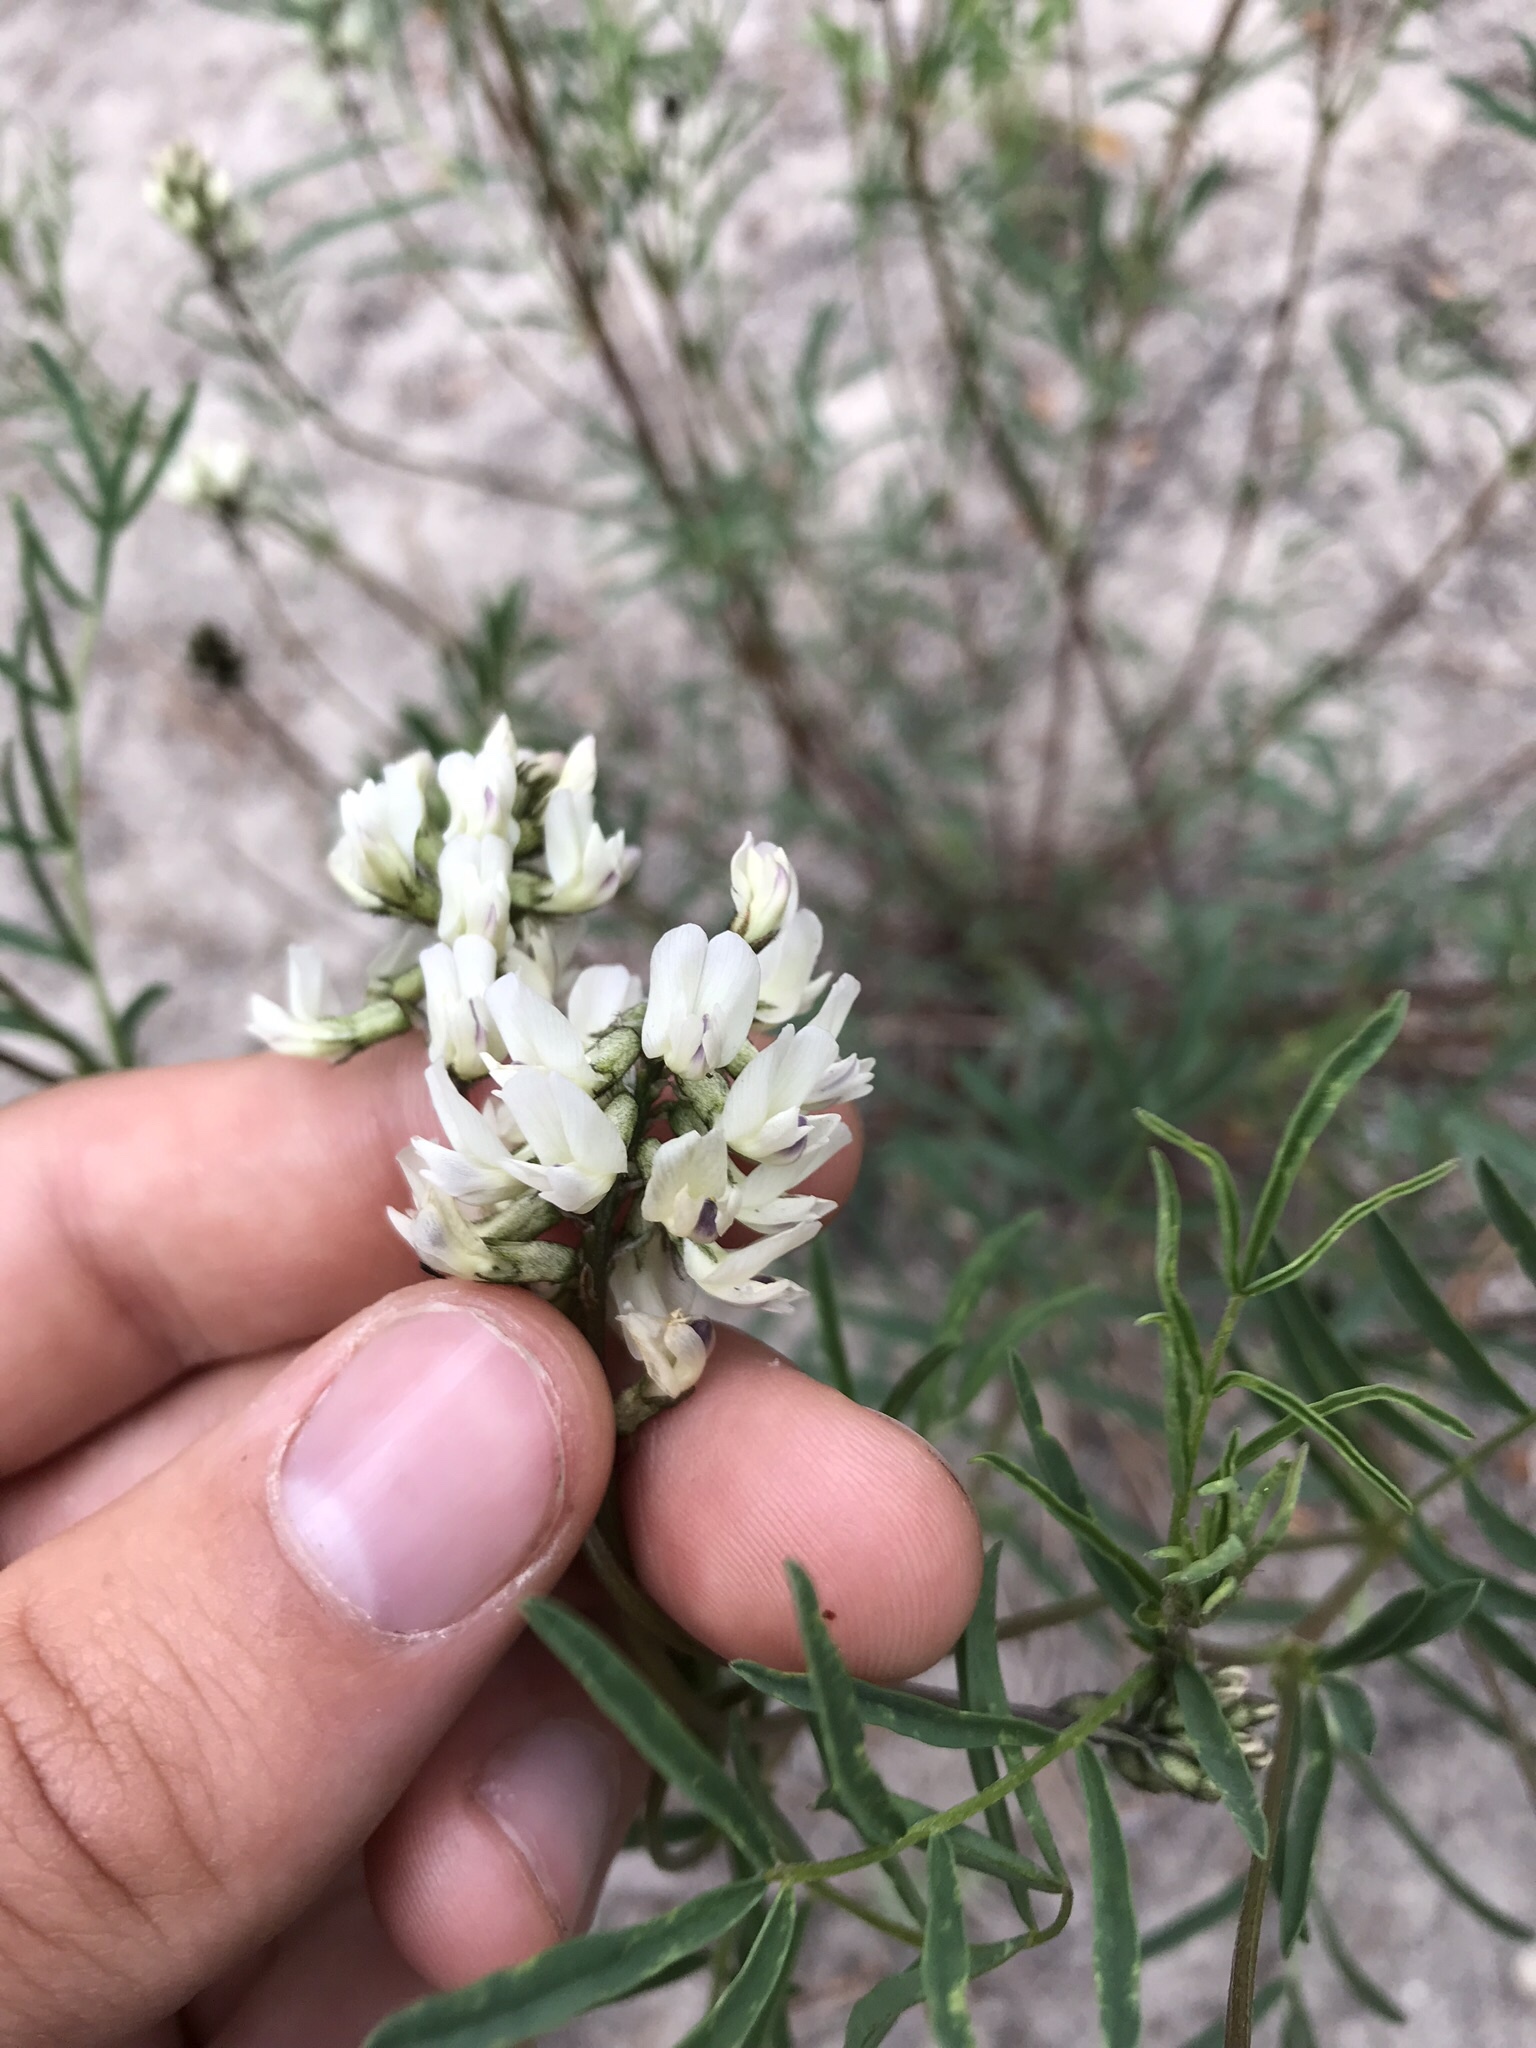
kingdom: Plantae
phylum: Tracheophyta
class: Magnoliopsida
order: Fabales
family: Fabaceae
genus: Astragalus
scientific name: Astragalus australis
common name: Indian milk-vetch
